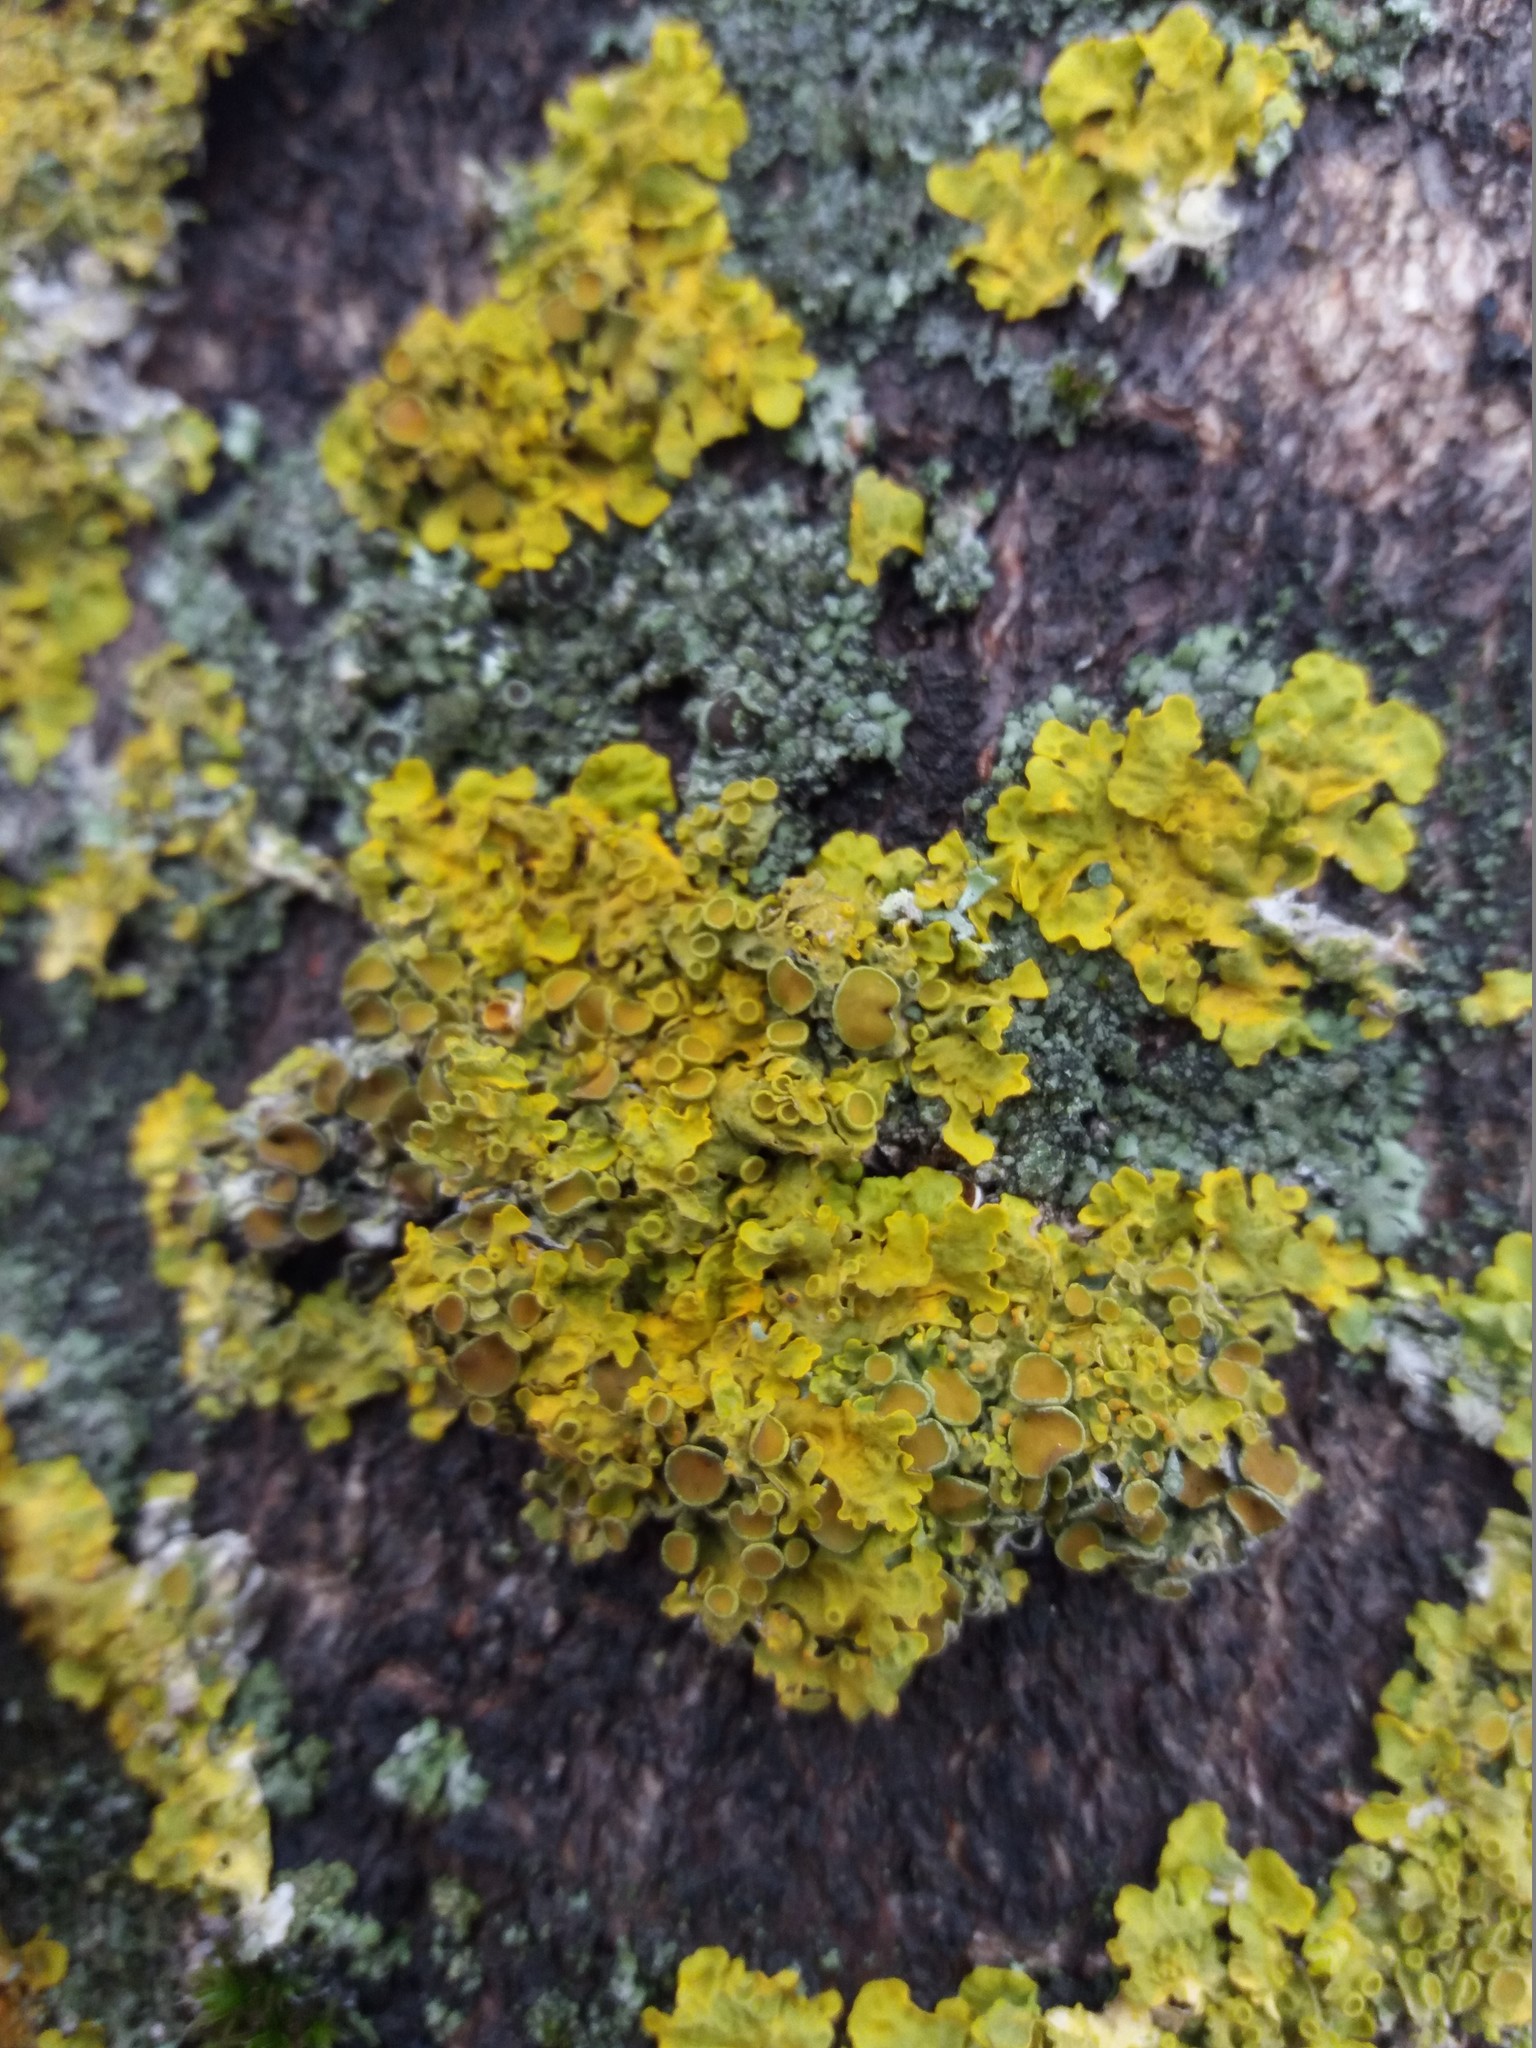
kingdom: Fungi
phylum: Ascomycota
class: Lecanoromycetes
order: Teloschistales
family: Teloschistaceae
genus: Xanthoria
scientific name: Xanthoria parietina
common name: Common orange lichen
